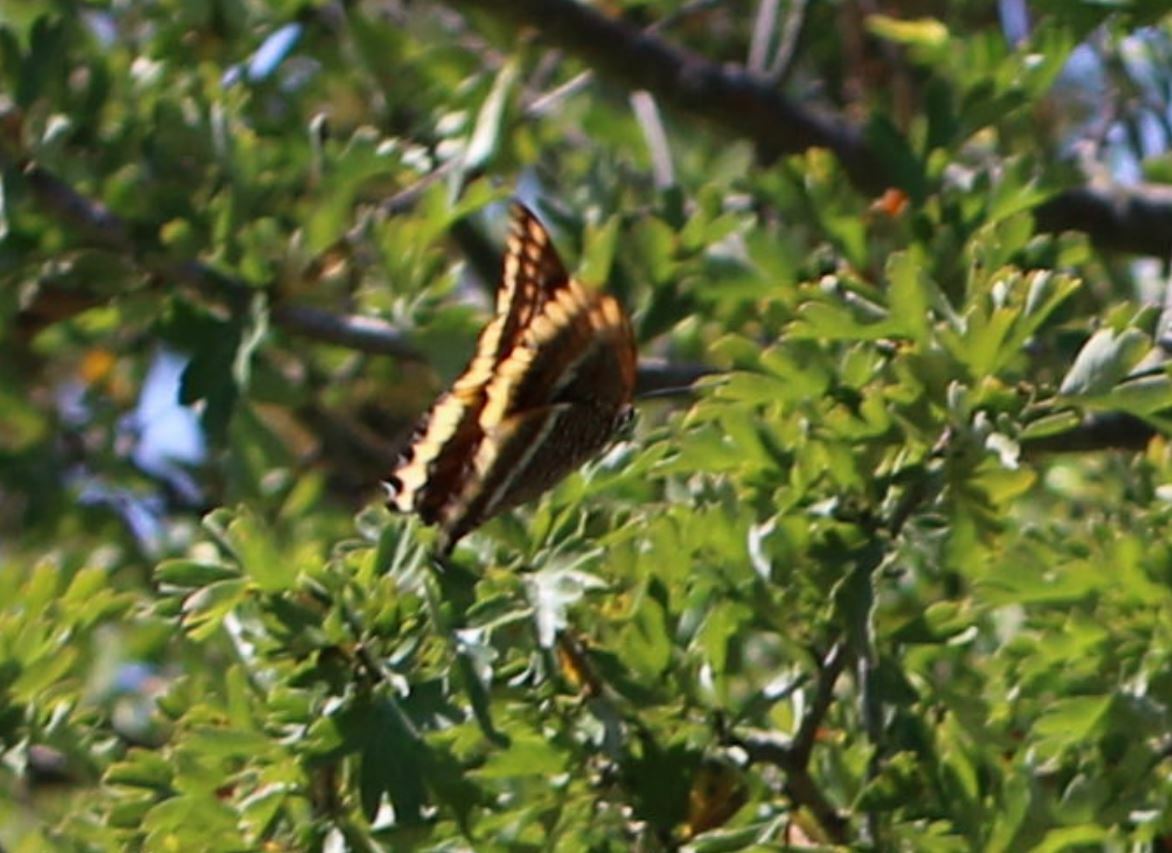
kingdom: Animalia
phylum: Arthropoda
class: Insecta
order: Lepidoptera
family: Nymphalidae
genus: Charaxes
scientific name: Charaxes jasius
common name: Two tailed pasha
